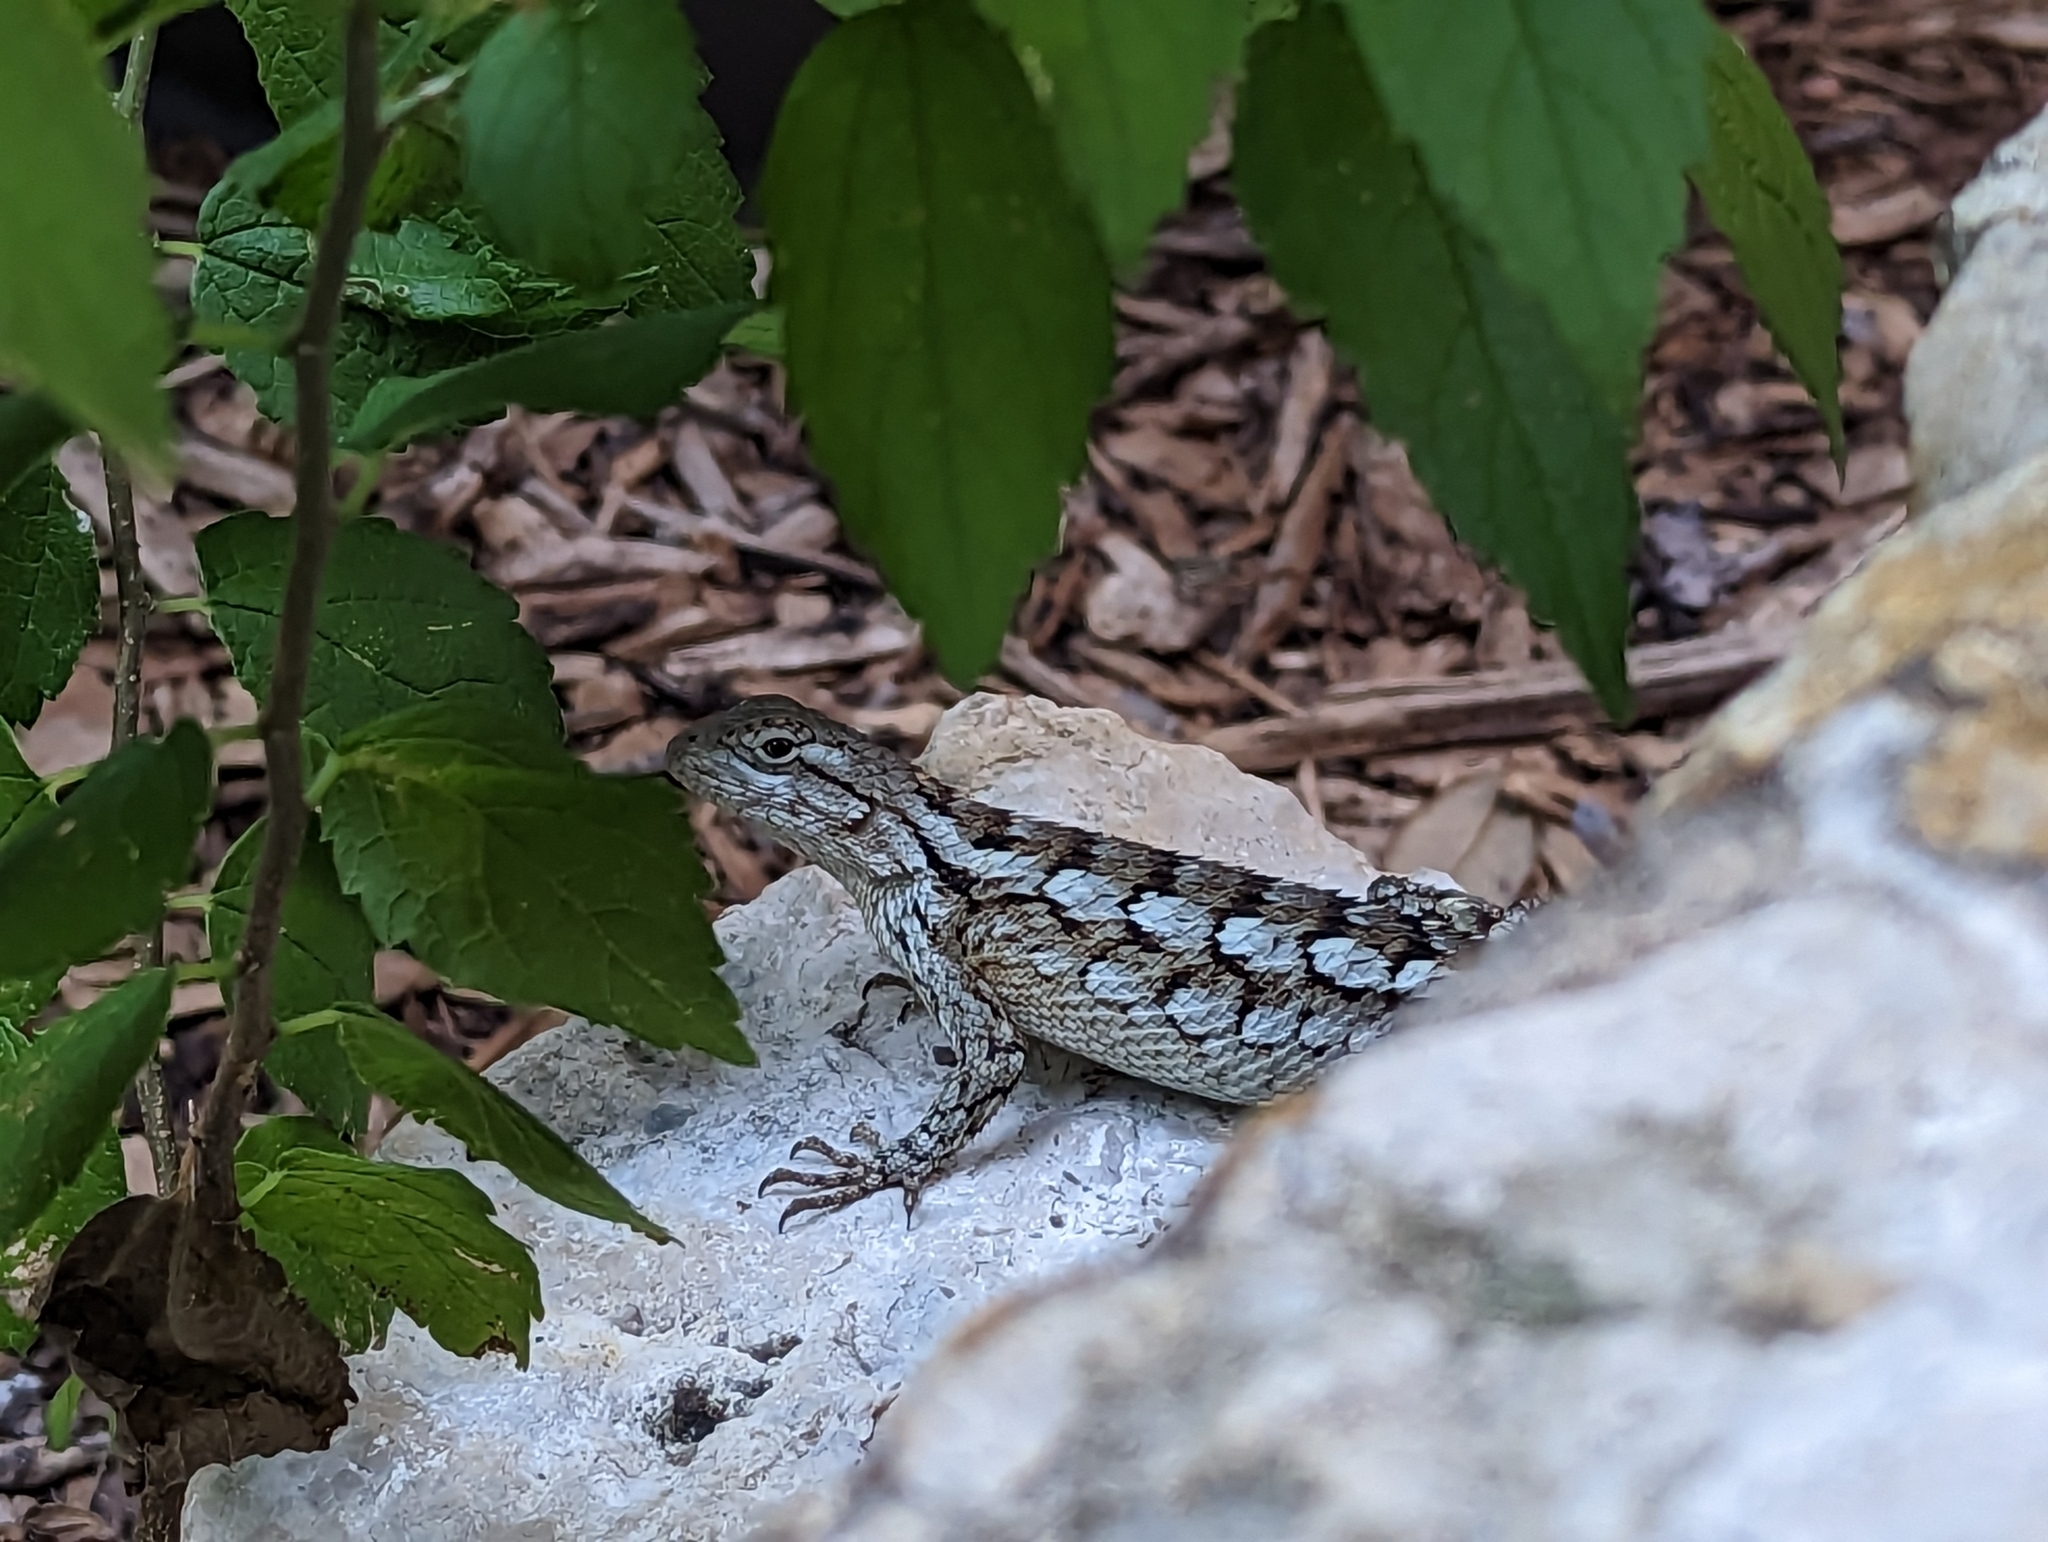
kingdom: Animalia
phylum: Chordata
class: Squamata
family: Phrynosomatidae
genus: Sceloporus
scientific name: Sceloporus olivaceus
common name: Texas spiny lizard
